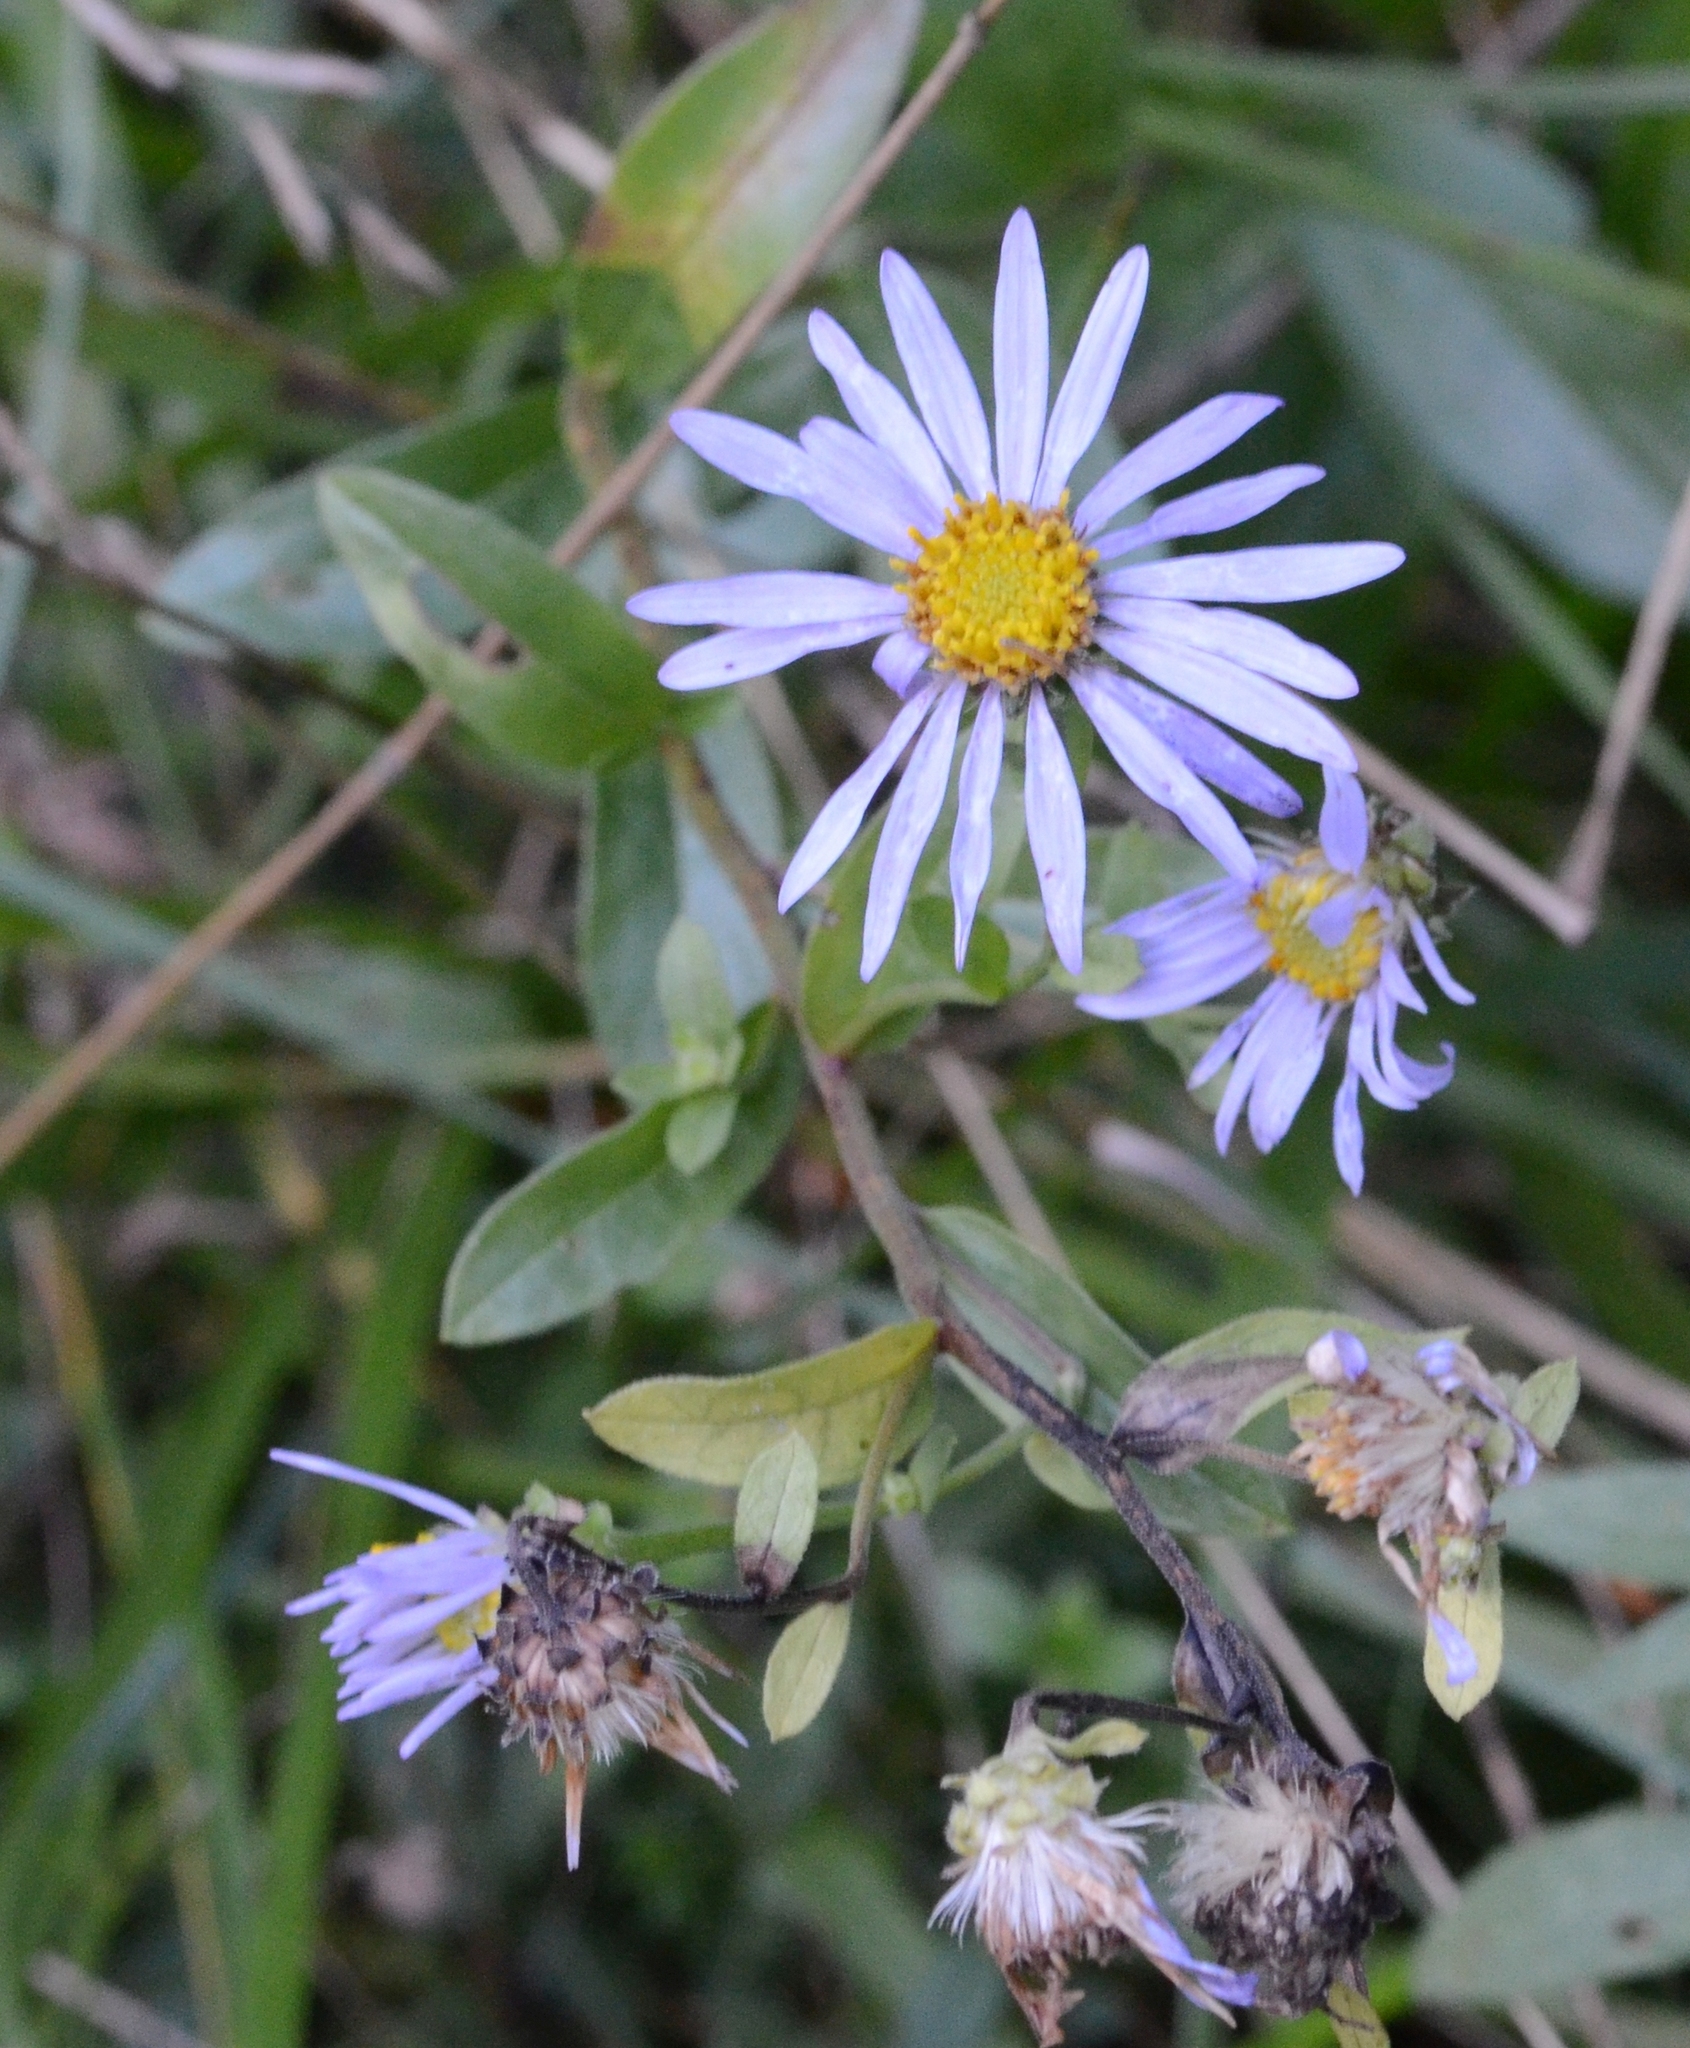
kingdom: Plantae
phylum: Tracheophyta
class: Magnoliopsida
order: Asterales
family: Asteraceae
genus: Aster
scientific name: Aster amellus
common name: European michaelmas daisy
